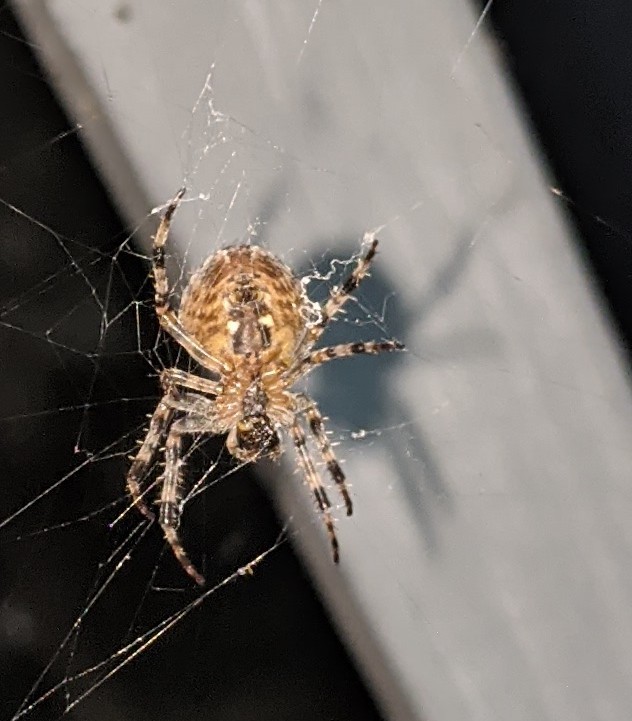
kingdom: Animalia
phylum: Arthropoda
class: Arachnida
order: Araneae
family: Araneidae
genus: Araneus
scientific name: Araneus diadematus
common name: Cross orbweaver
